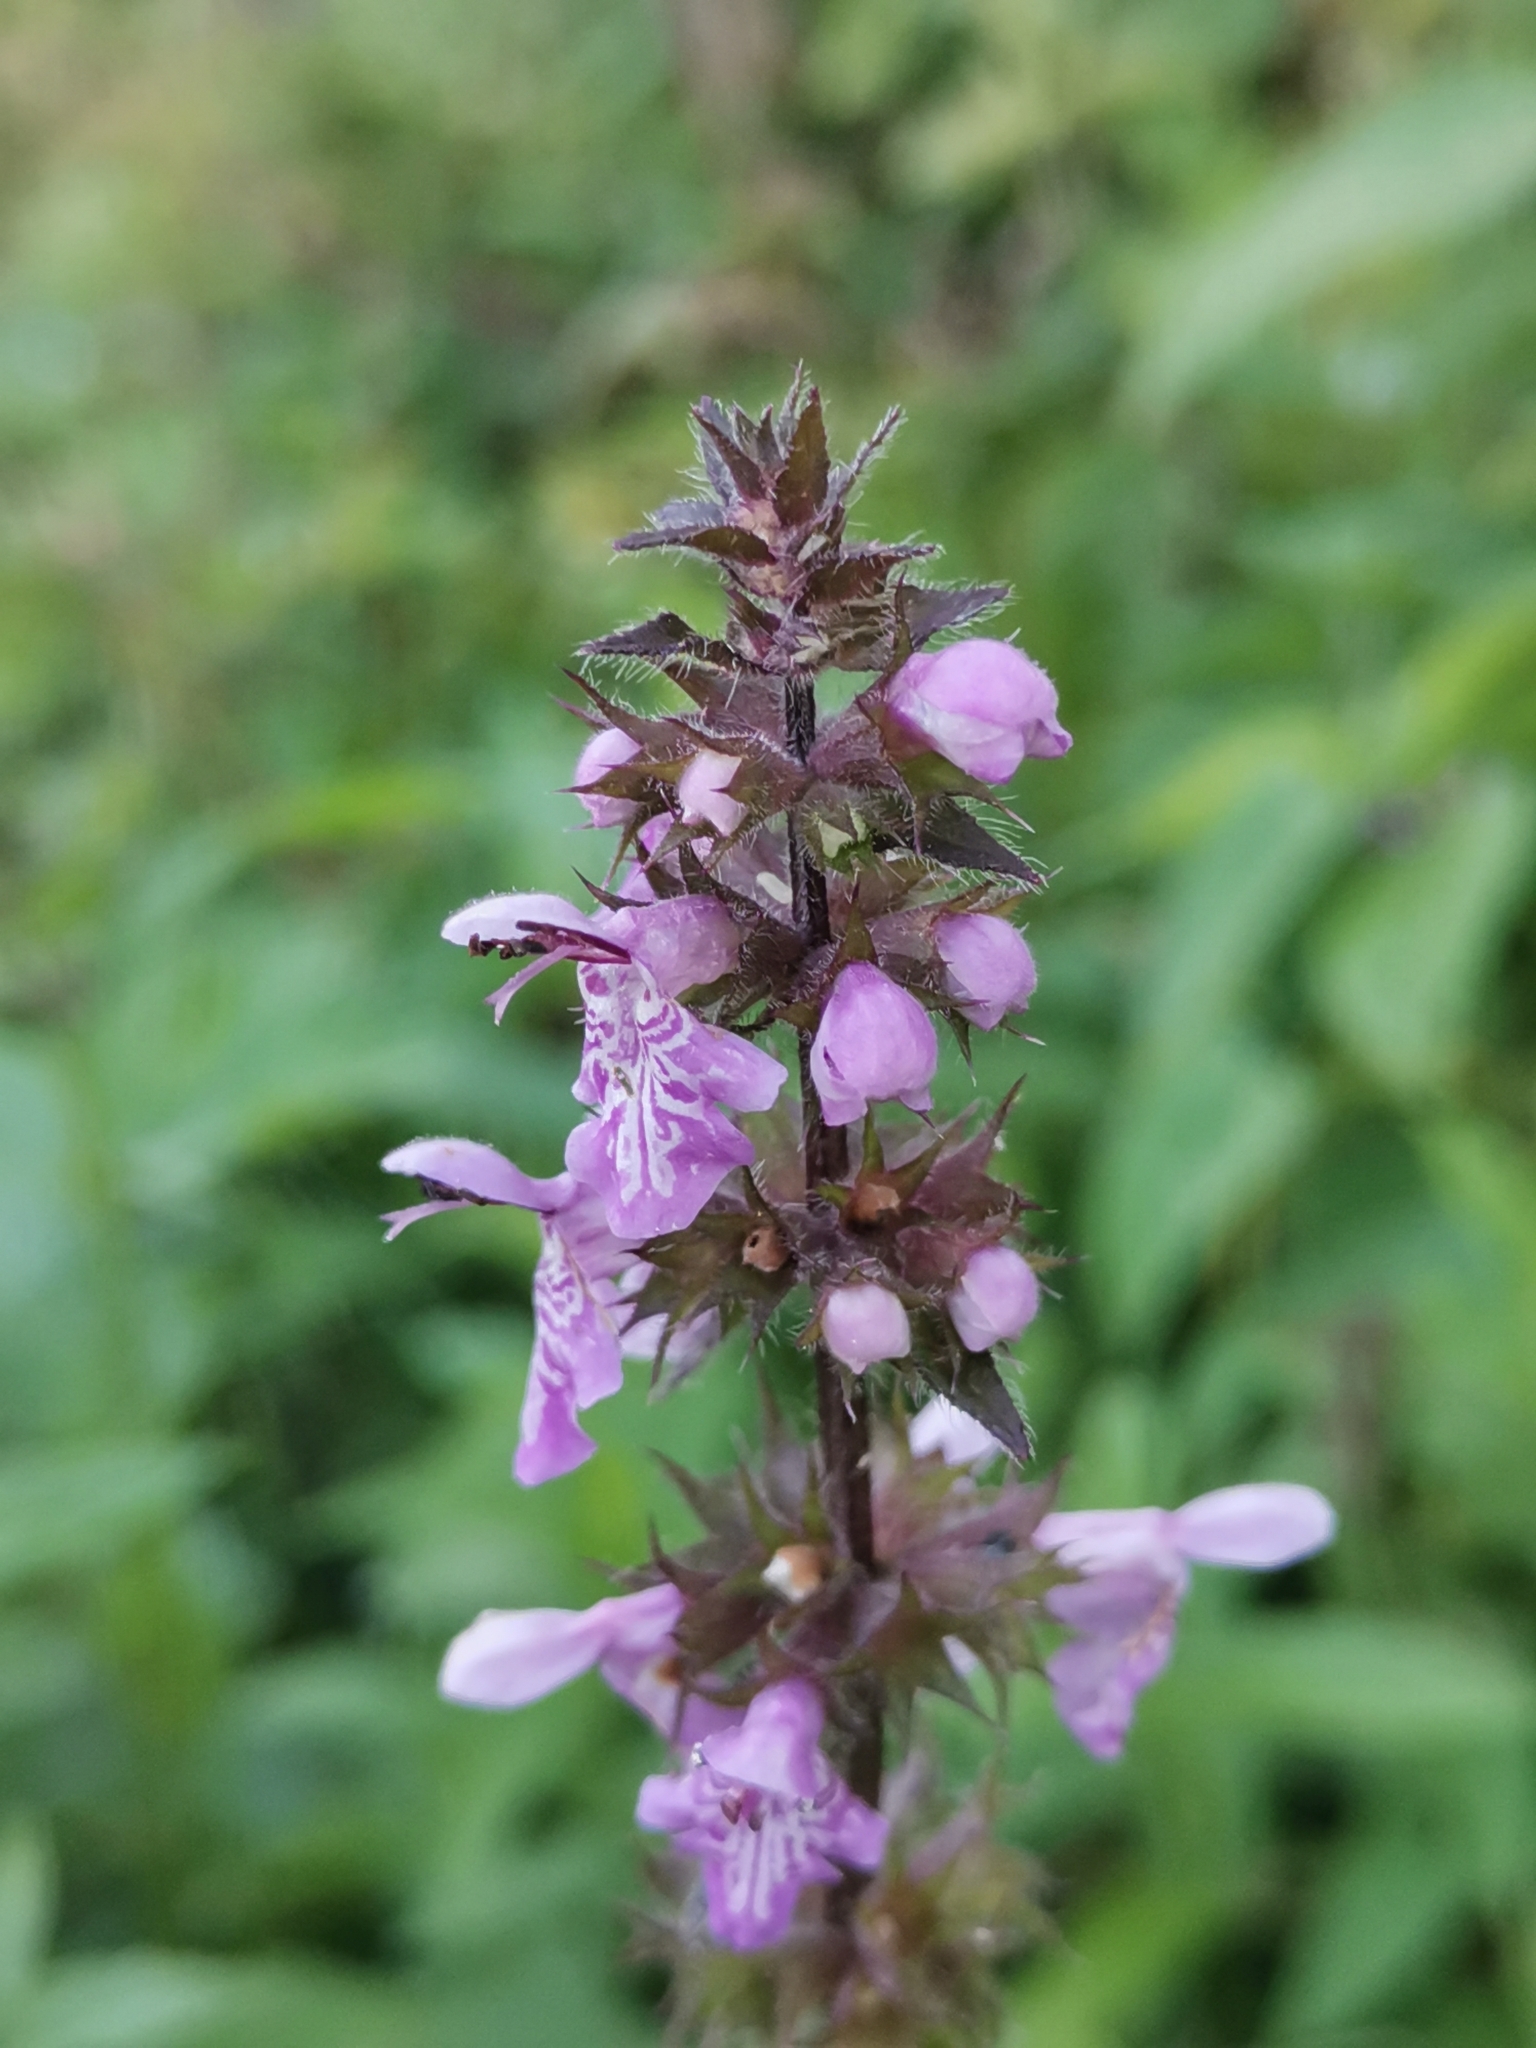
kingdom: Plantae
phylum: Tracheophyta
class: Magnoliopsida
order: Lamiales
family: Lamiaceae
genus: Stachys
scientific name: Stachys palustris
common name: Marsh woundwort
